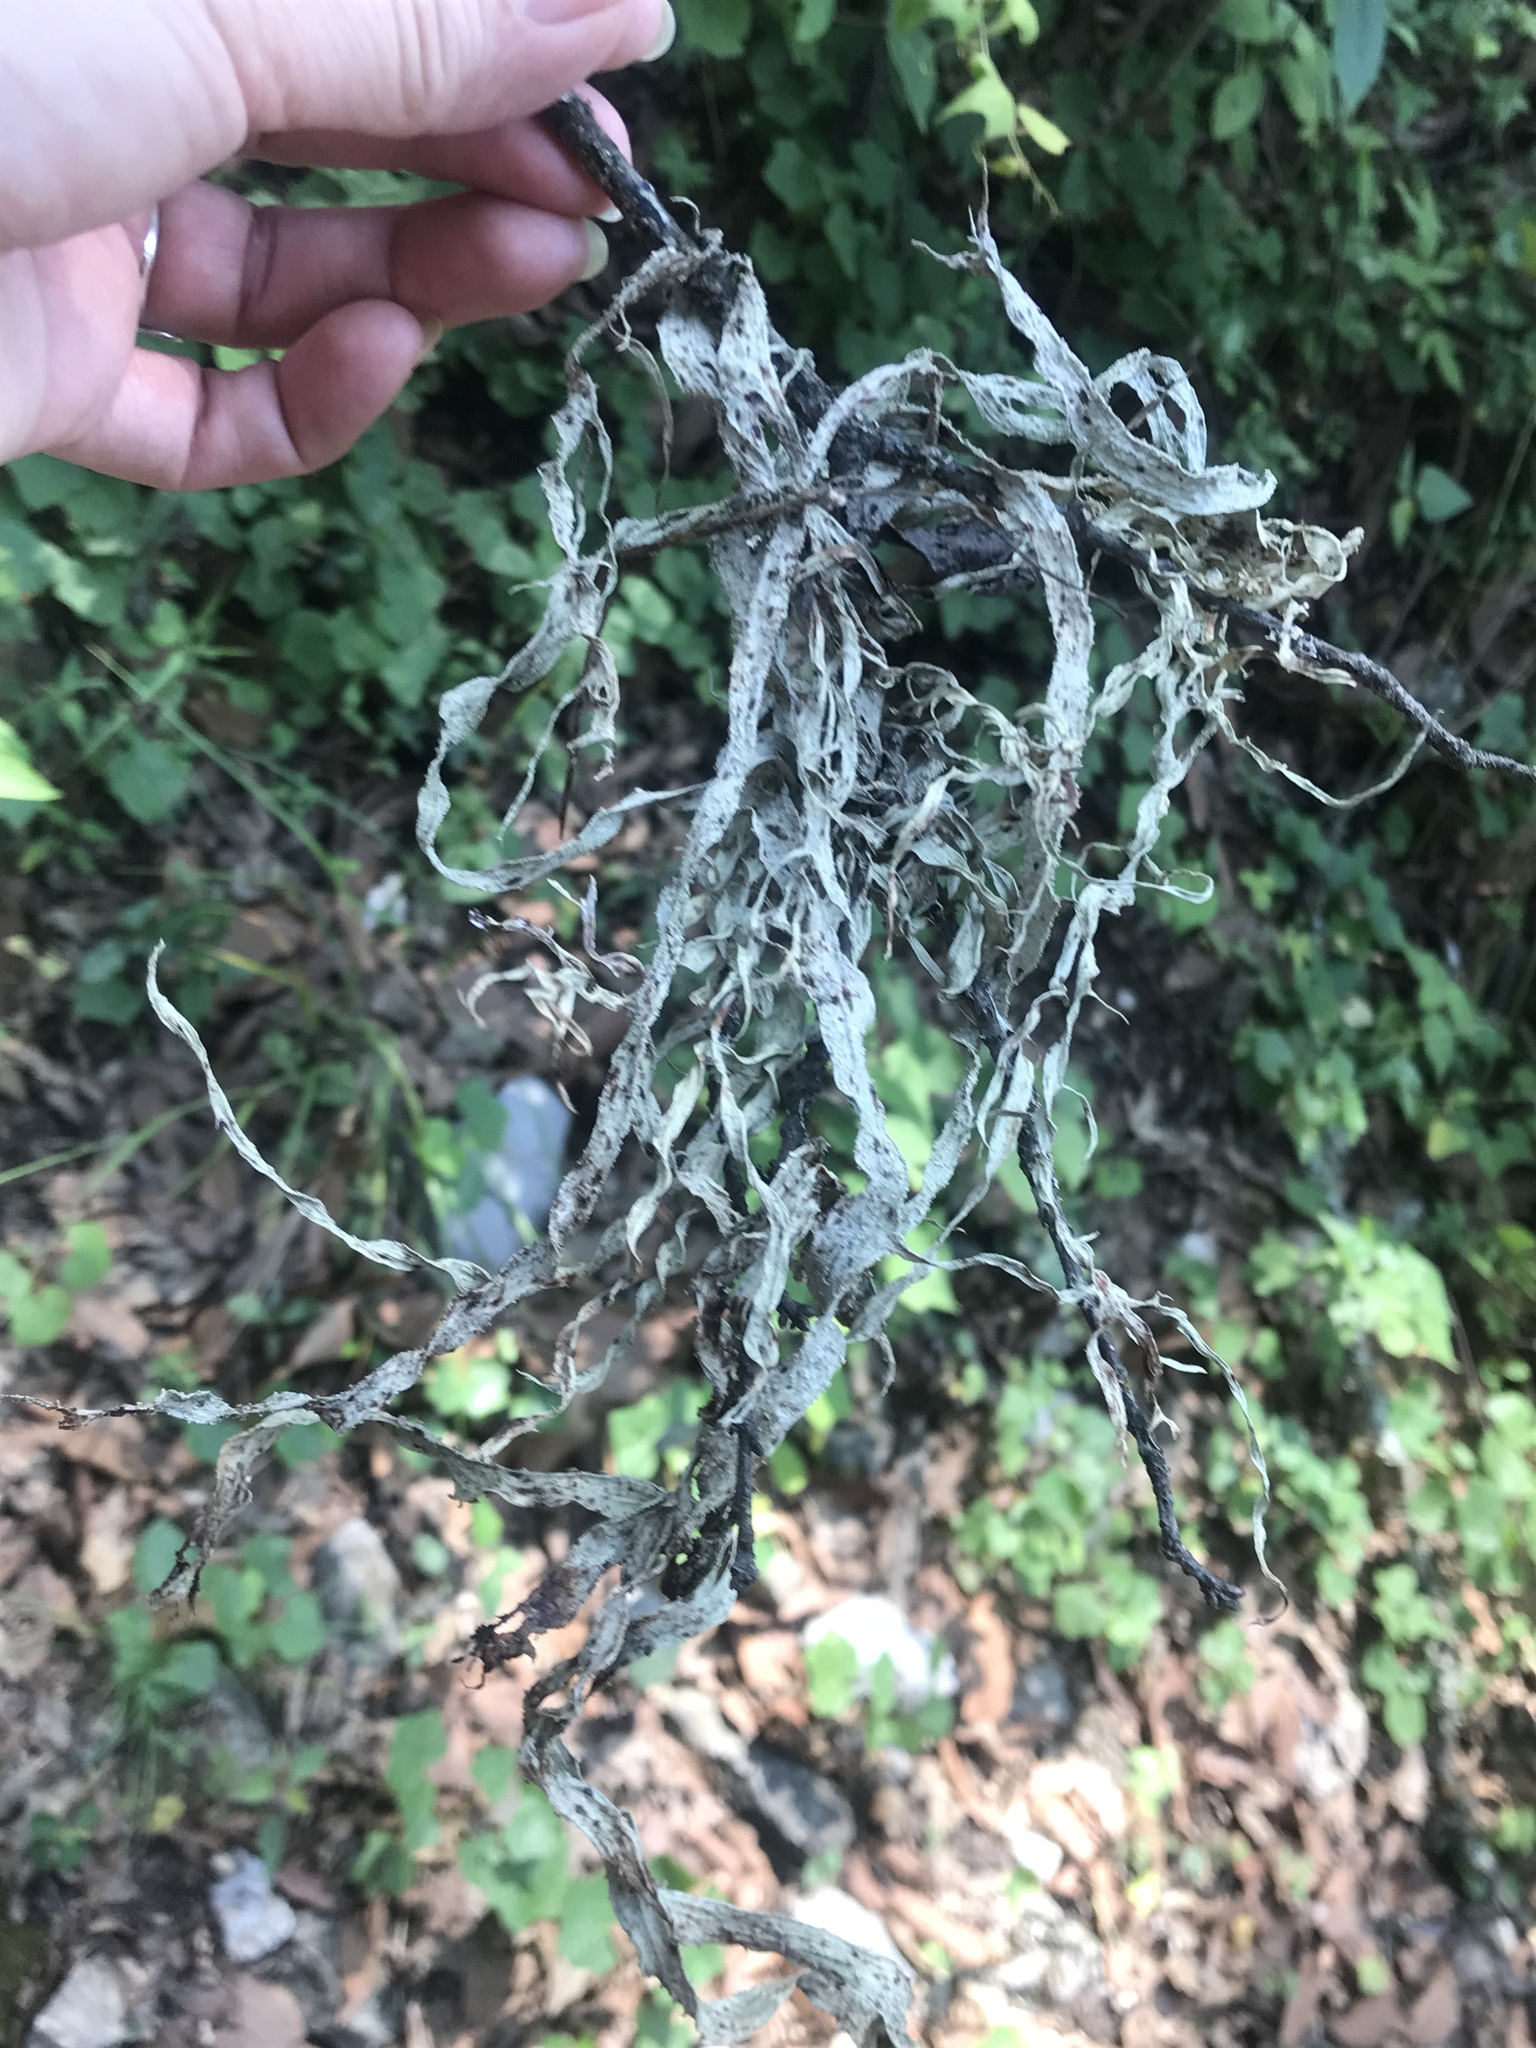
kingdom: Fungi
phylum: Ascomycota
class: Lecanoromycetes
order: Lecanorales
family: Ramalinaceae
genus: Ramalina
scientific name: Ramalina celastri
